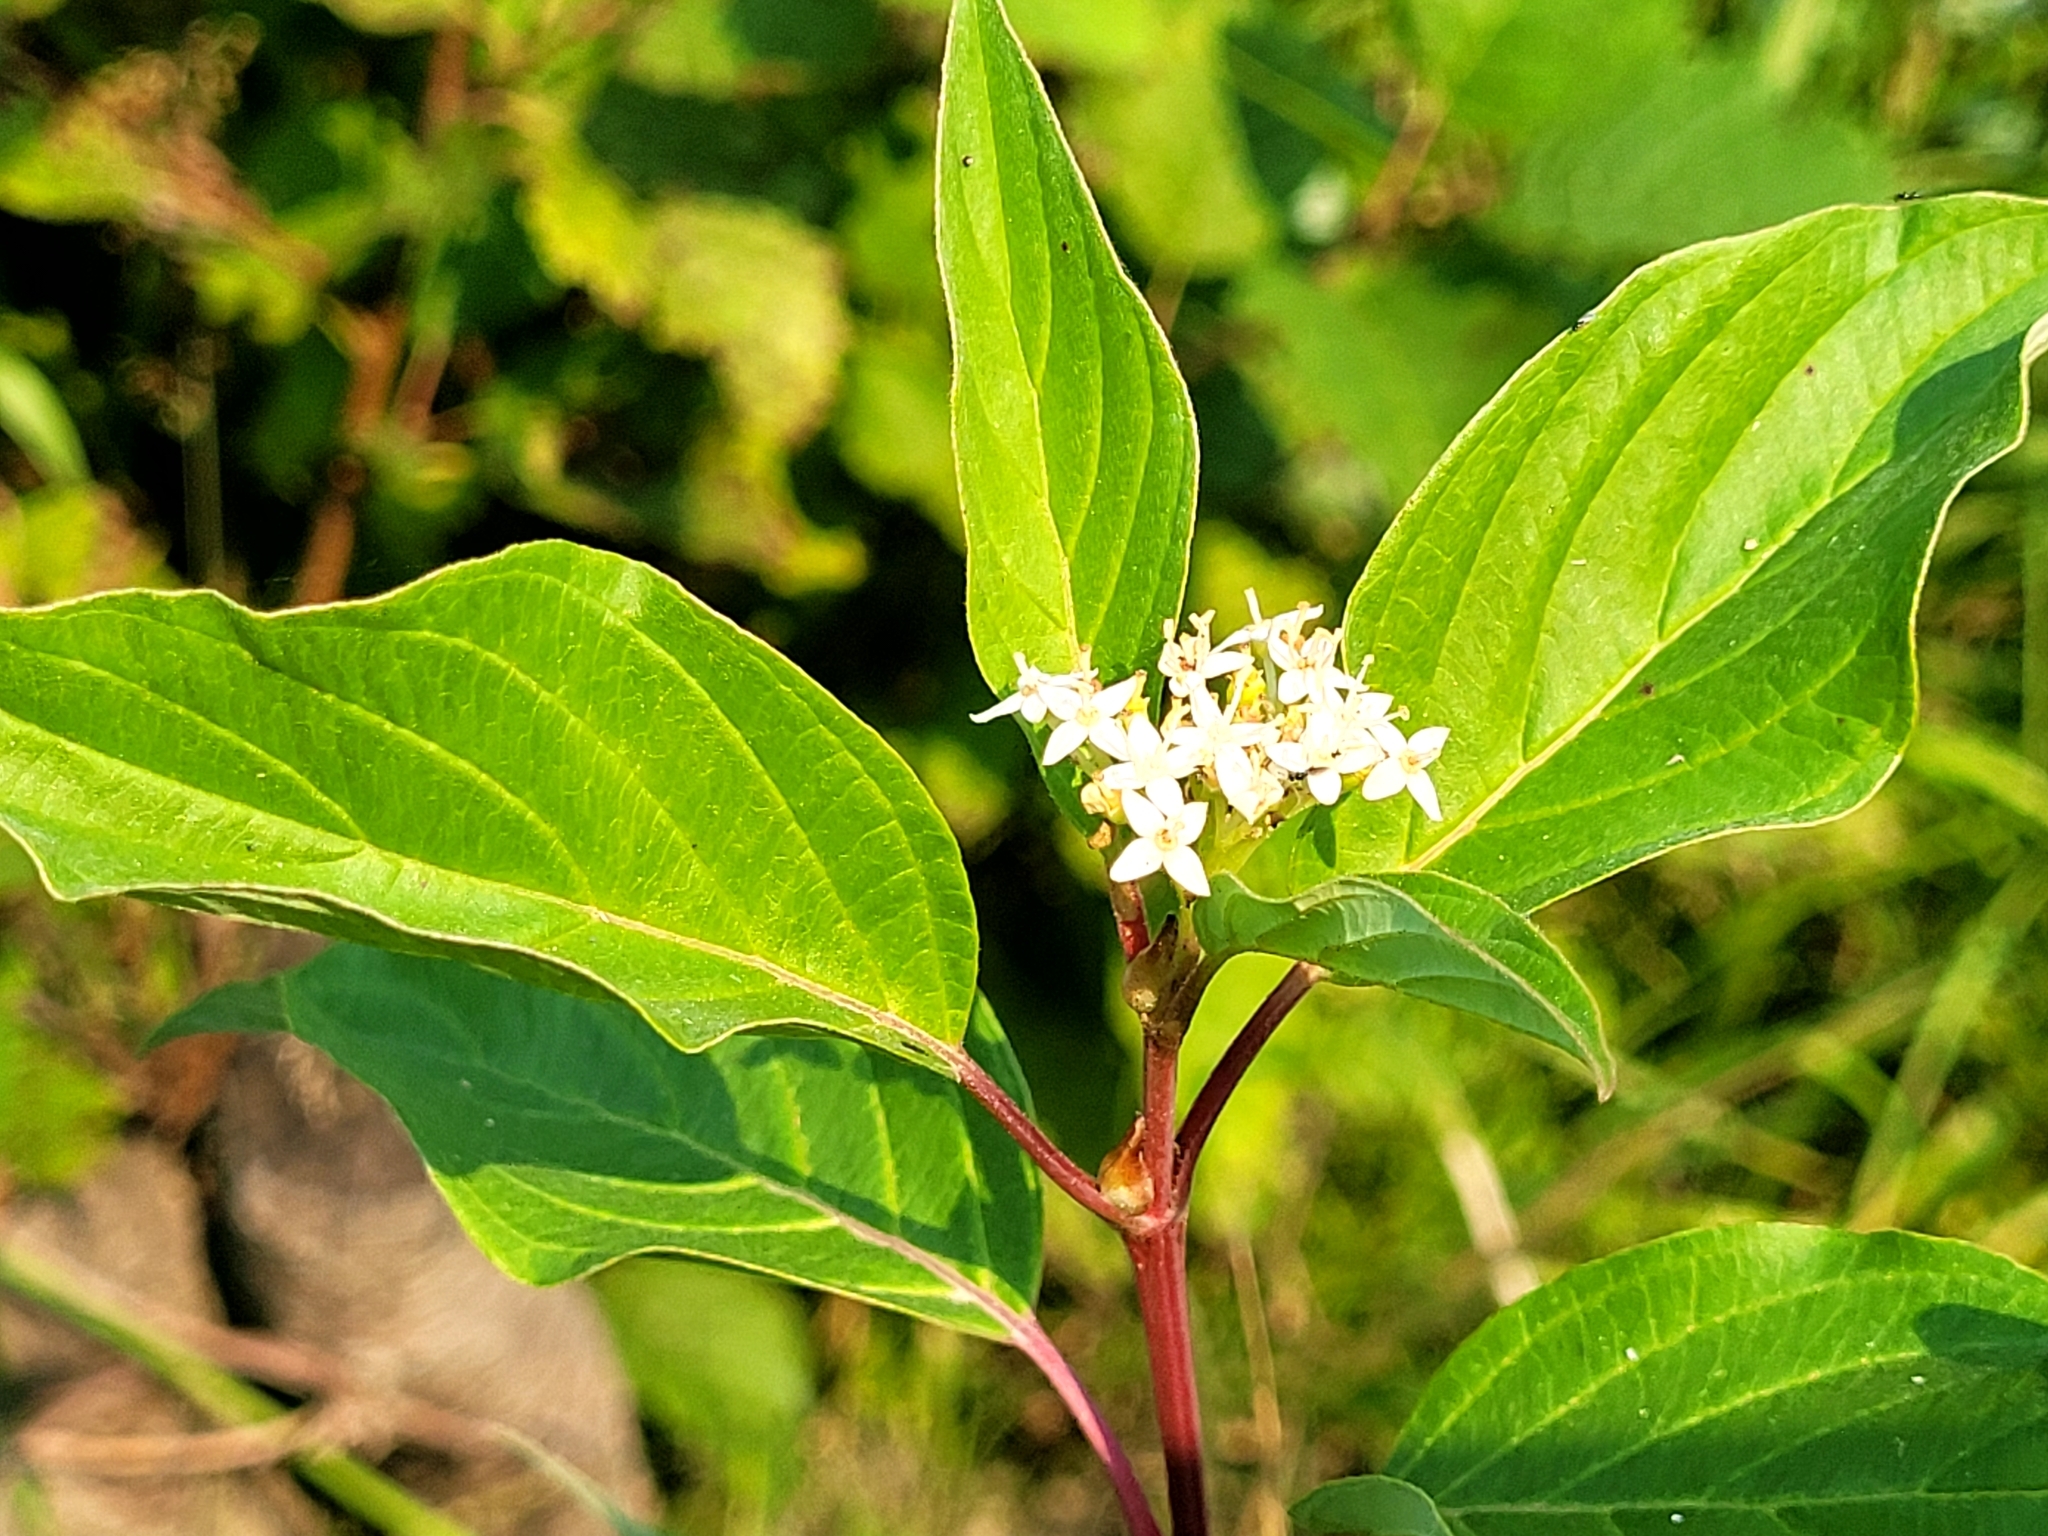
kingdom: Plantae
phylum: Tracheophyta
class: Magnoliopsida
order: Cornales
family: Cornaceae
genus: Cornus
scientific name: Cornus sericea
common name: Red-osier dogwood
